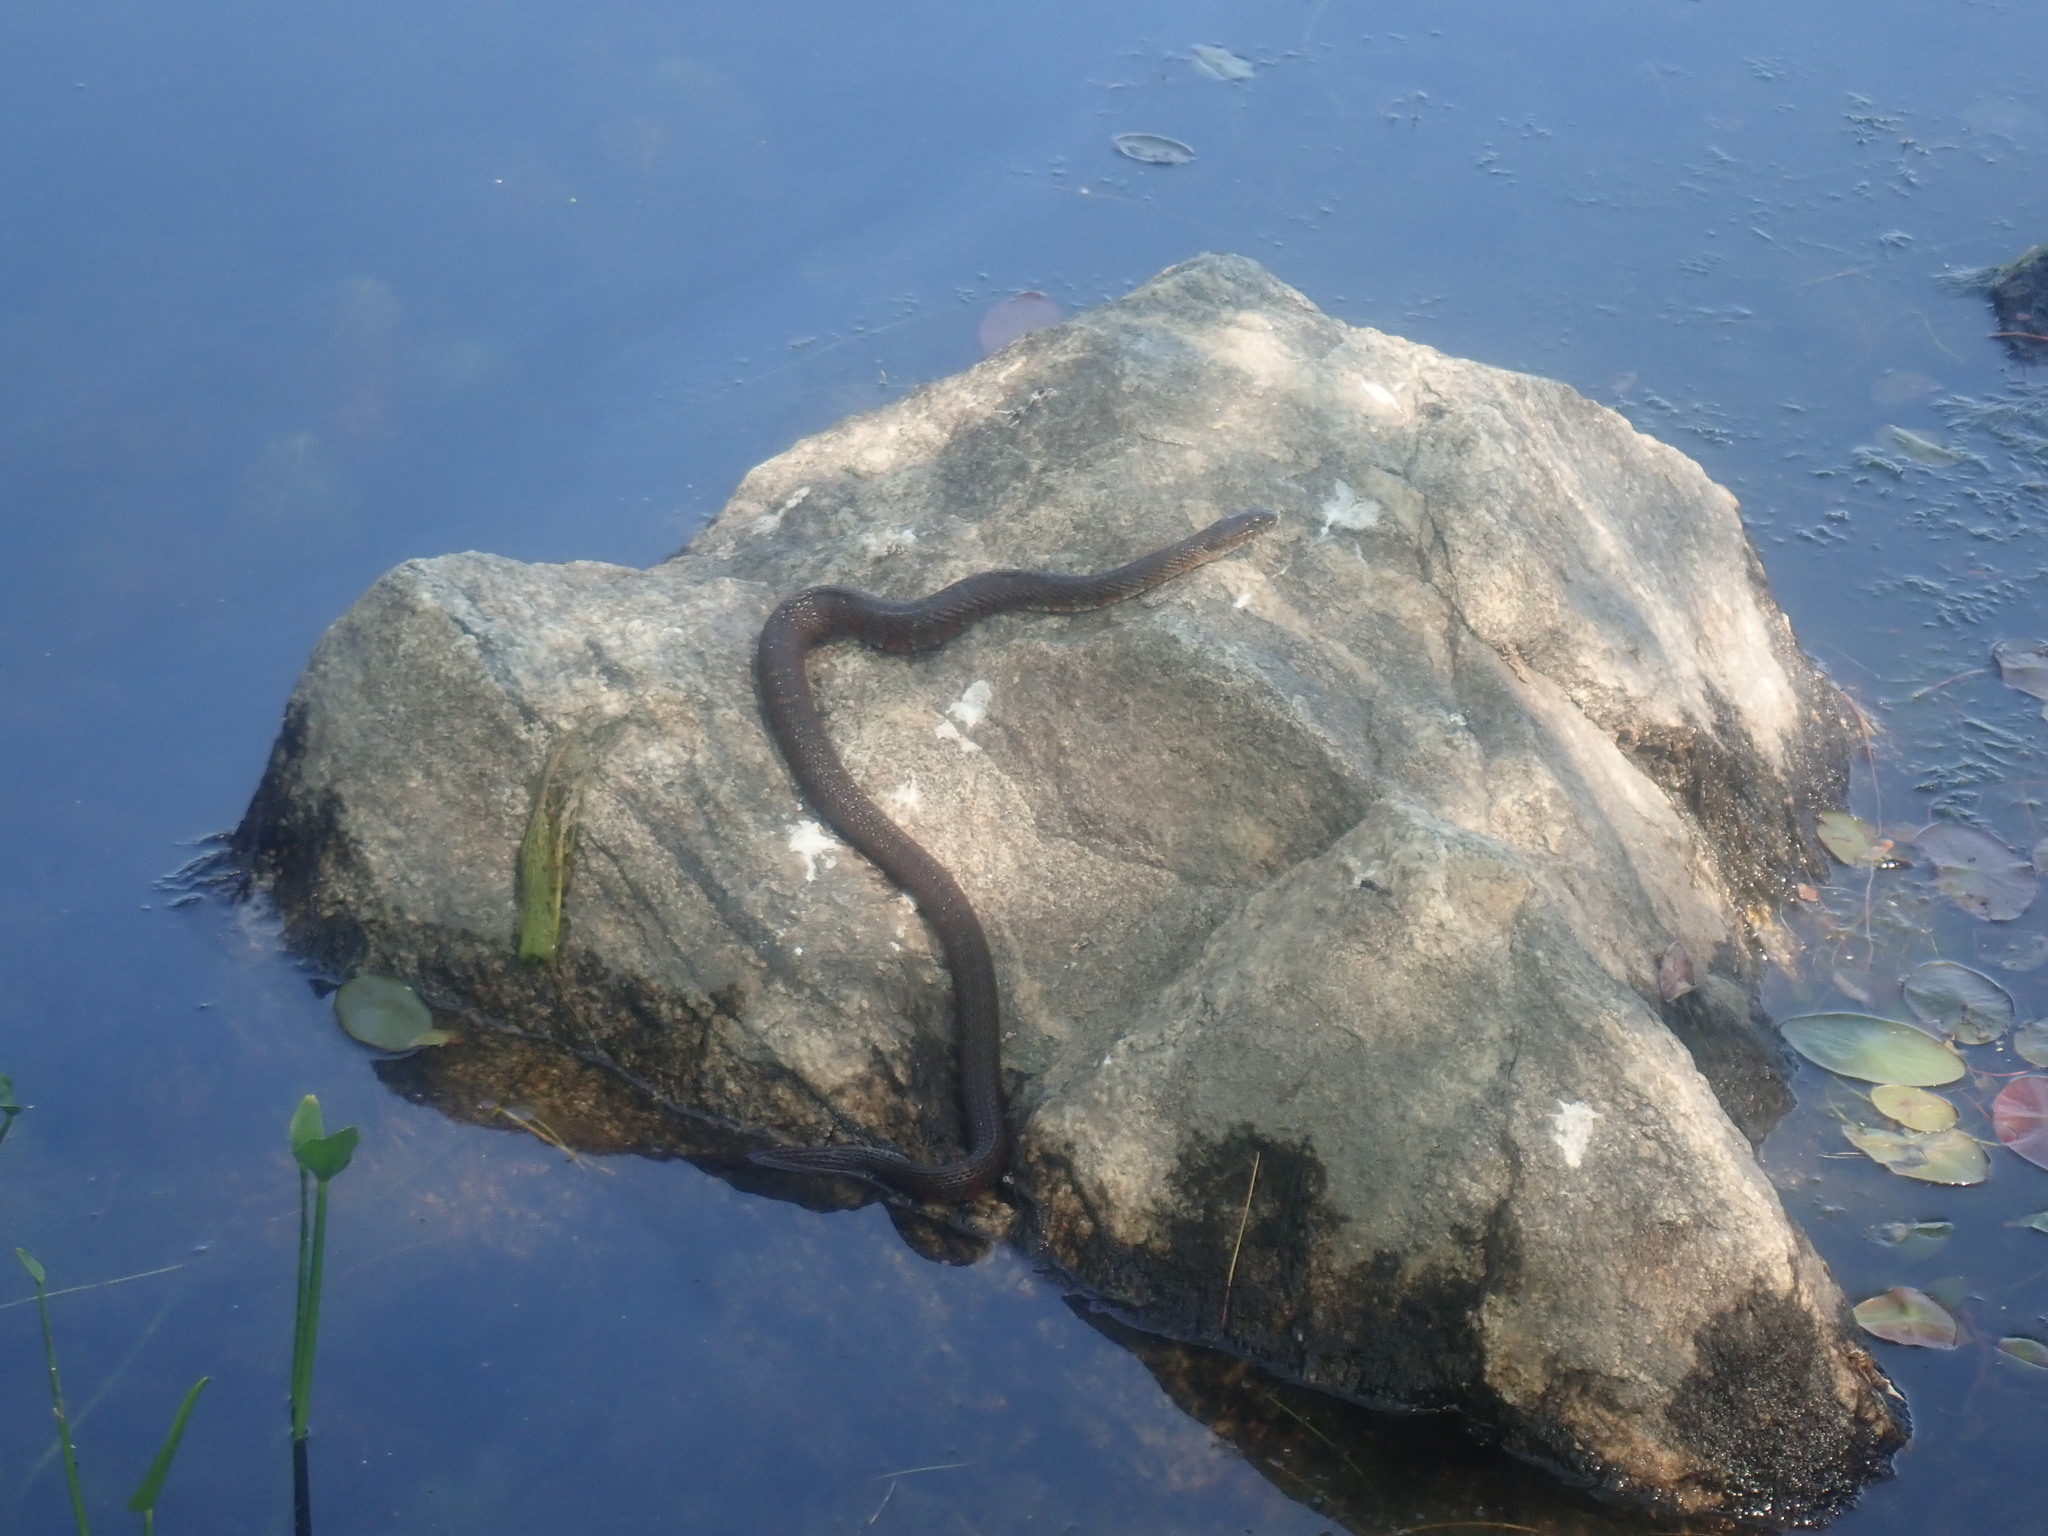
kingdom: Animalia
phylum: Chordata
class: Squamata
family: Colubridae
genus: Nerodia
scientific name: Nerodia sipedon
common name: Northern water snake
